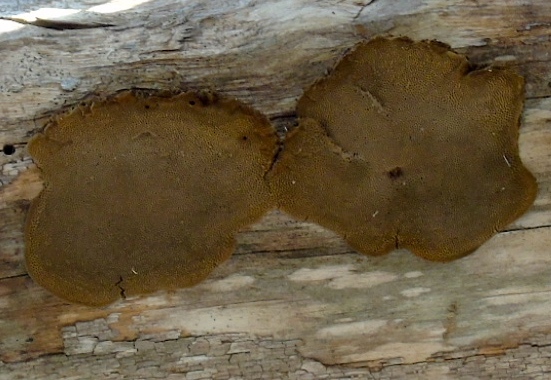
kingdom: Fungi
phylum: Basidiomycota
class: Agaricomycetes
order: Hymenochaetales
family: Hymenochaetaceae
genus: Phellinus
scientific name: Phellinus
